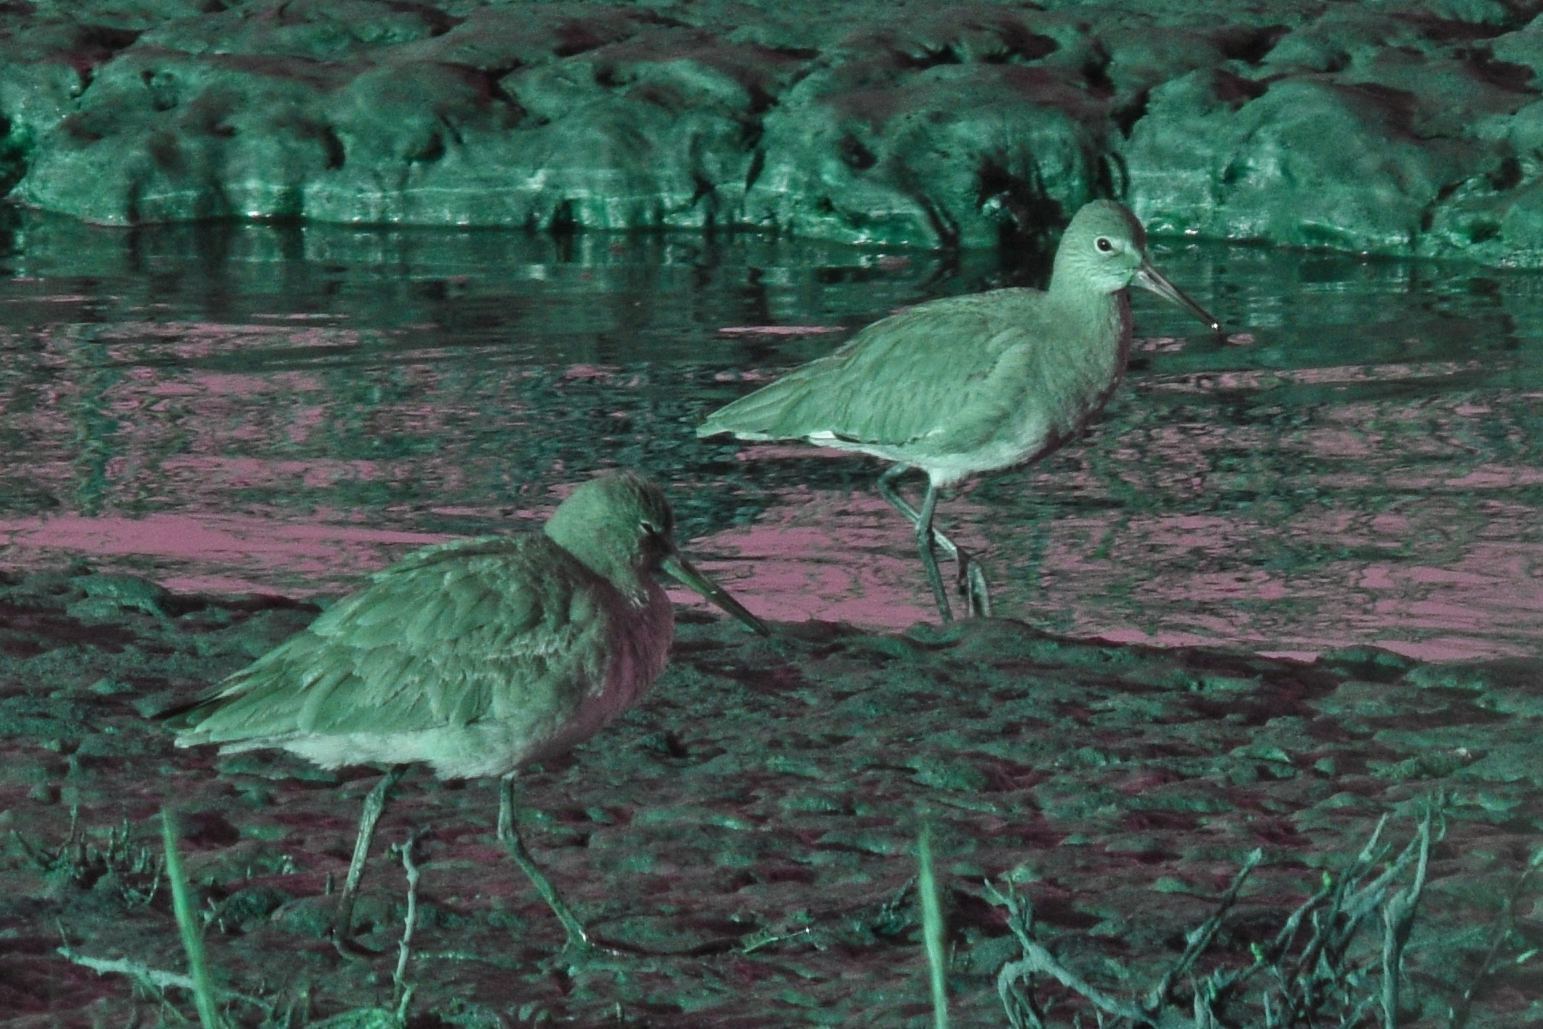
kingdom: Animalia
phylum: Chordata
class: Aves
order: Charadriiformes
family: Scolopacidae
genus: Tringa
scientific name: Tringa semipalmata
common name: Willet
